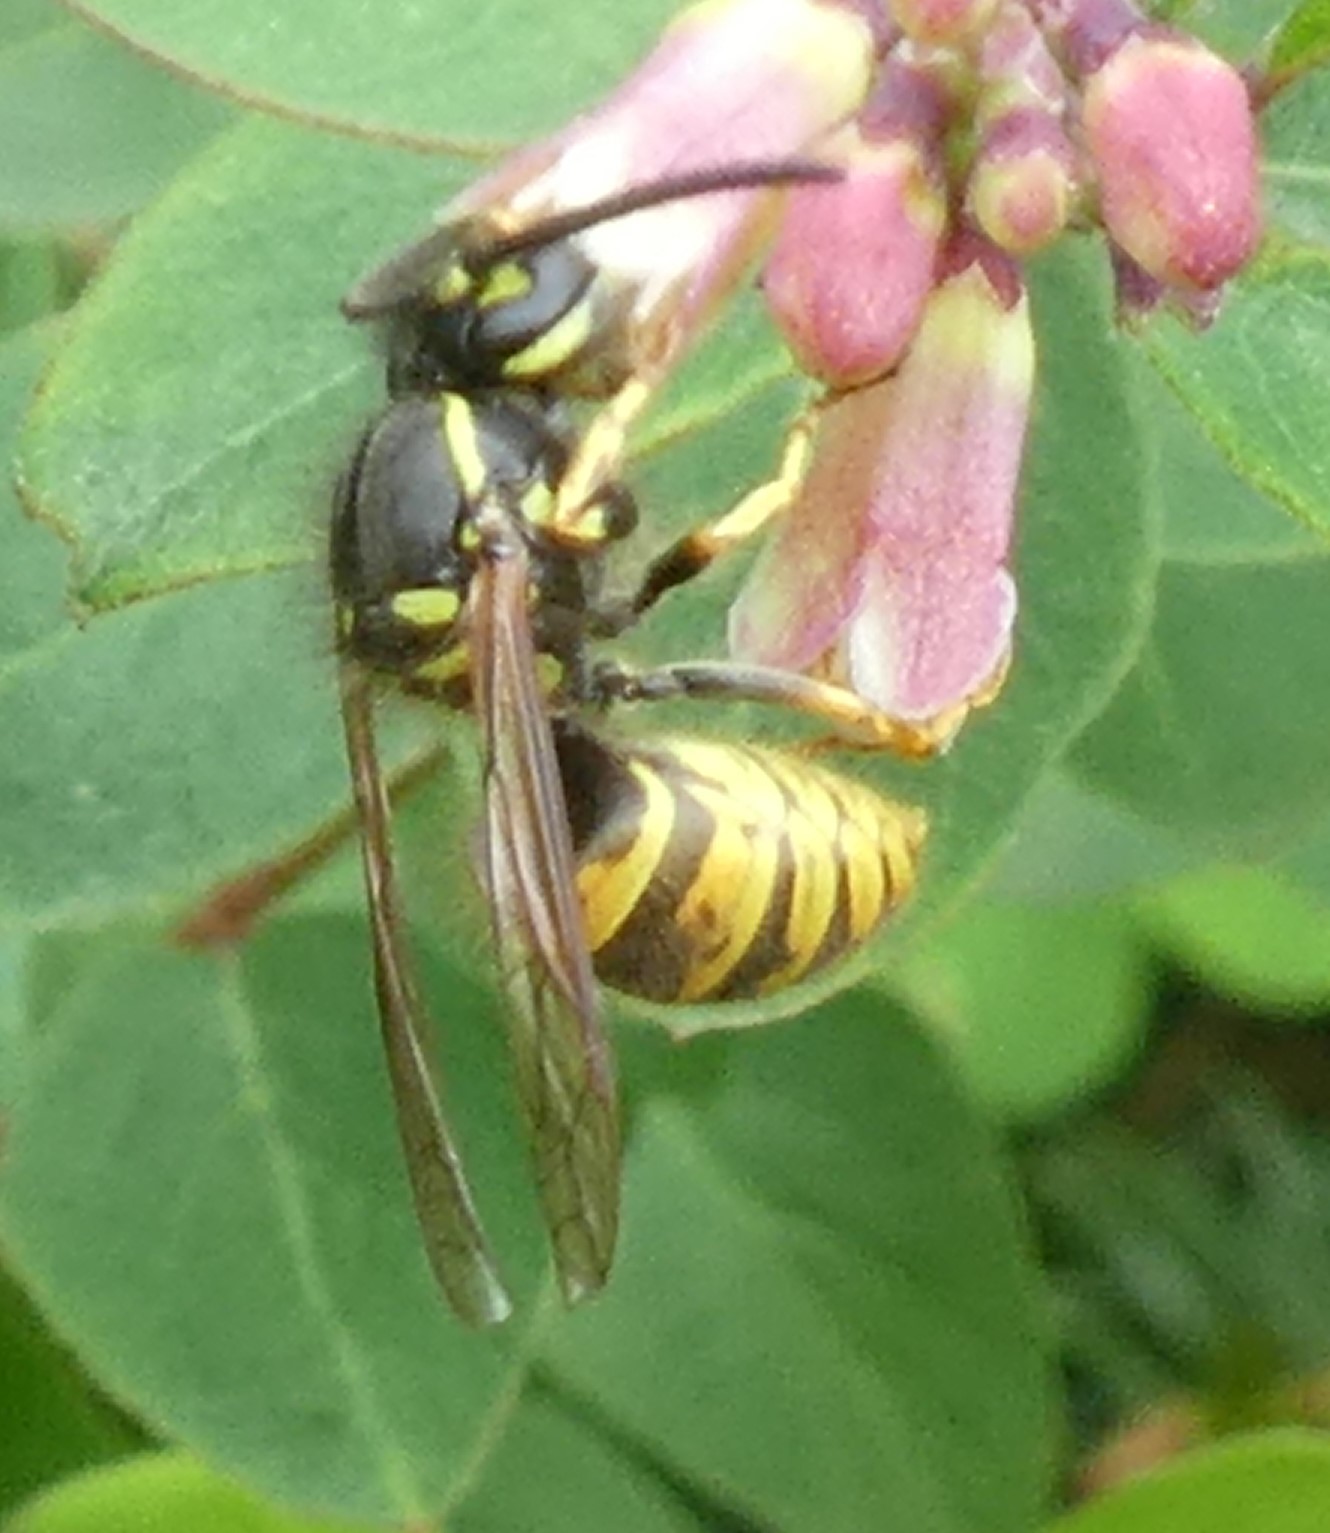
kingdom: Animalia
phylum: Arthropoda
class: Insecta
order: Hymenoptera
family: Vespidae
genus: Vespula
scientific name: Vespula vulgaris
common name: Common wasp
